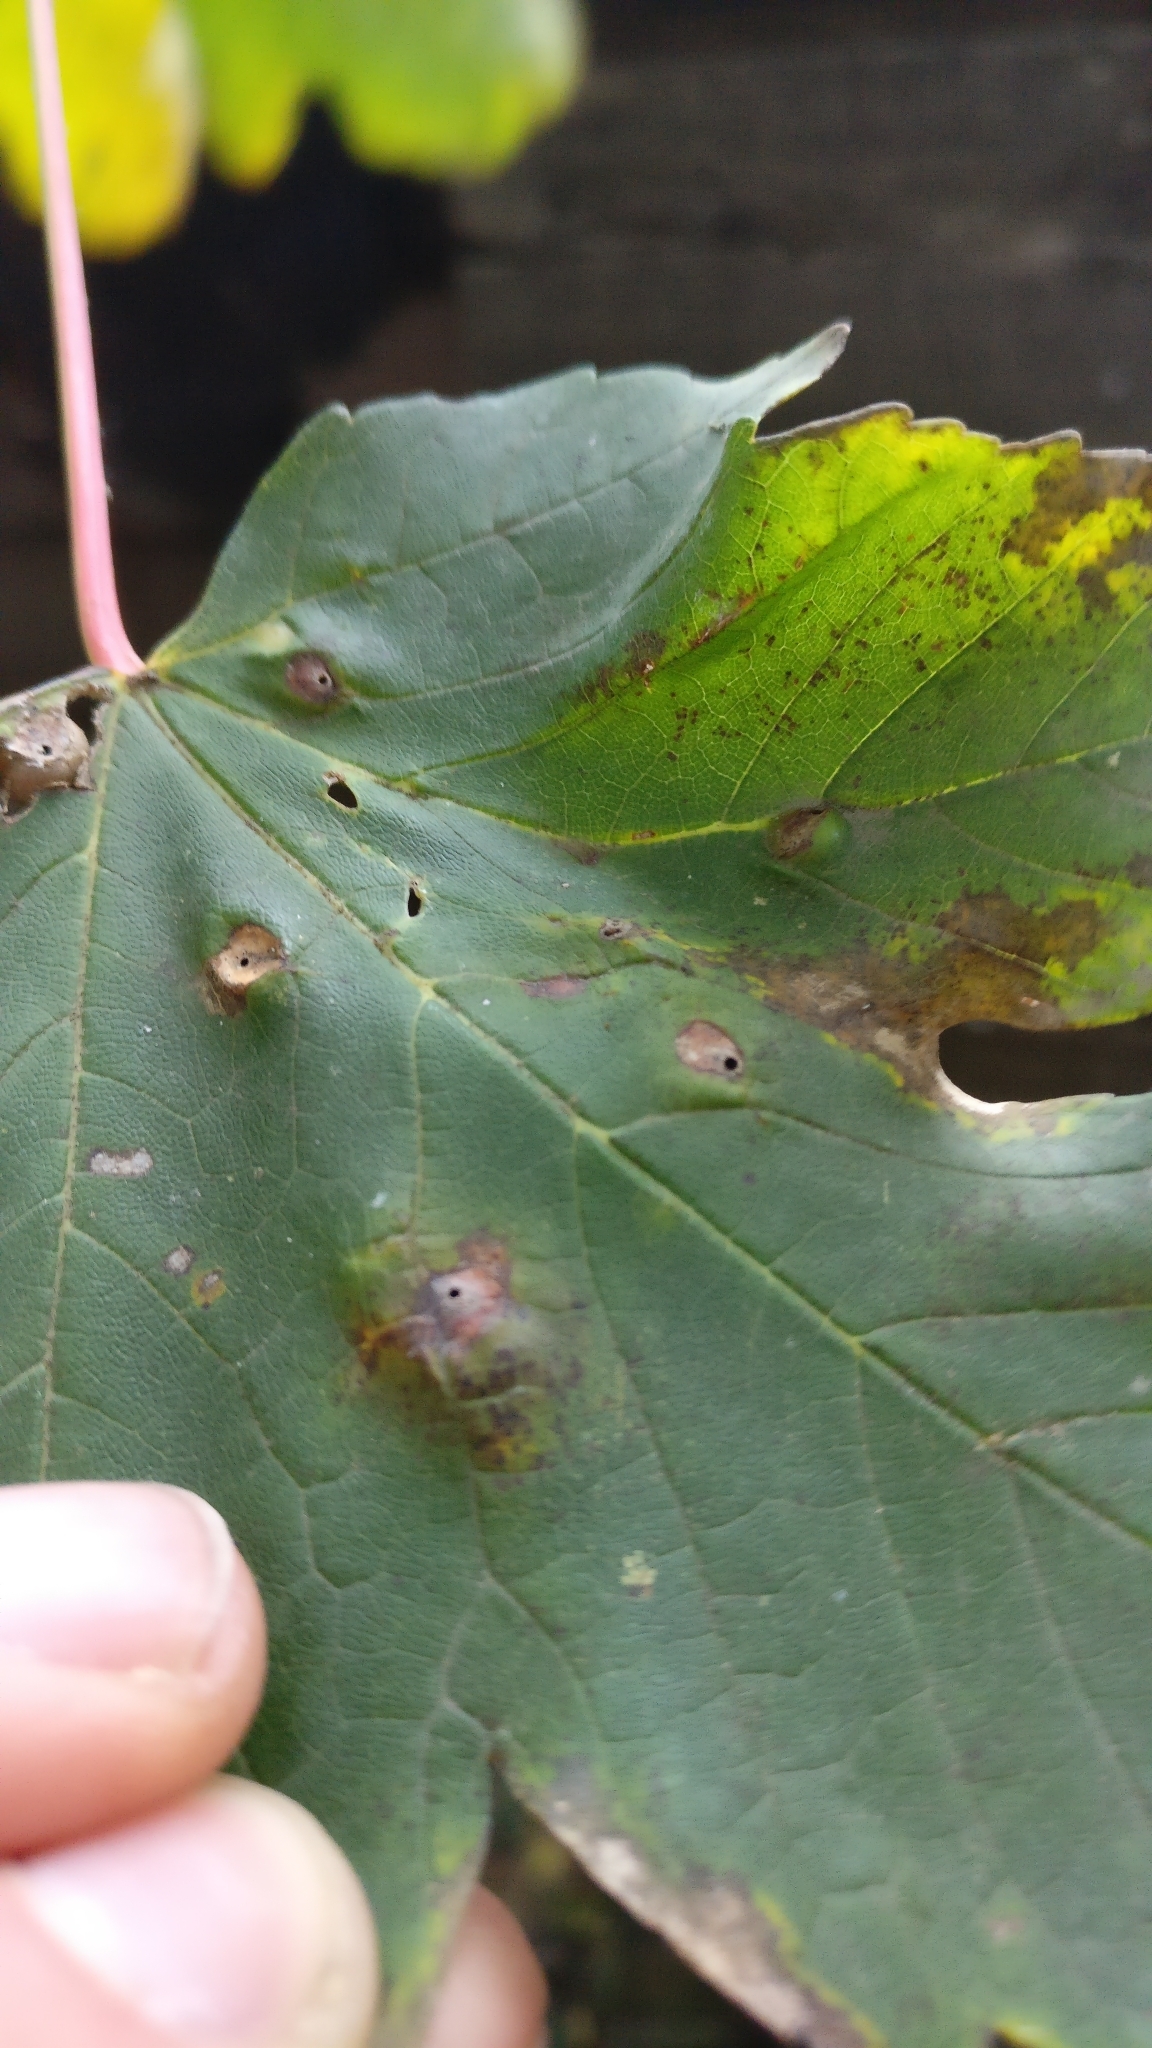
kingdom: Animalia
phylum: Arthropoda
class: Insecta
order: Hymenoptera
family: Cynipidae
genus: Pediaspis
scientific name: Pediaspis aceris
